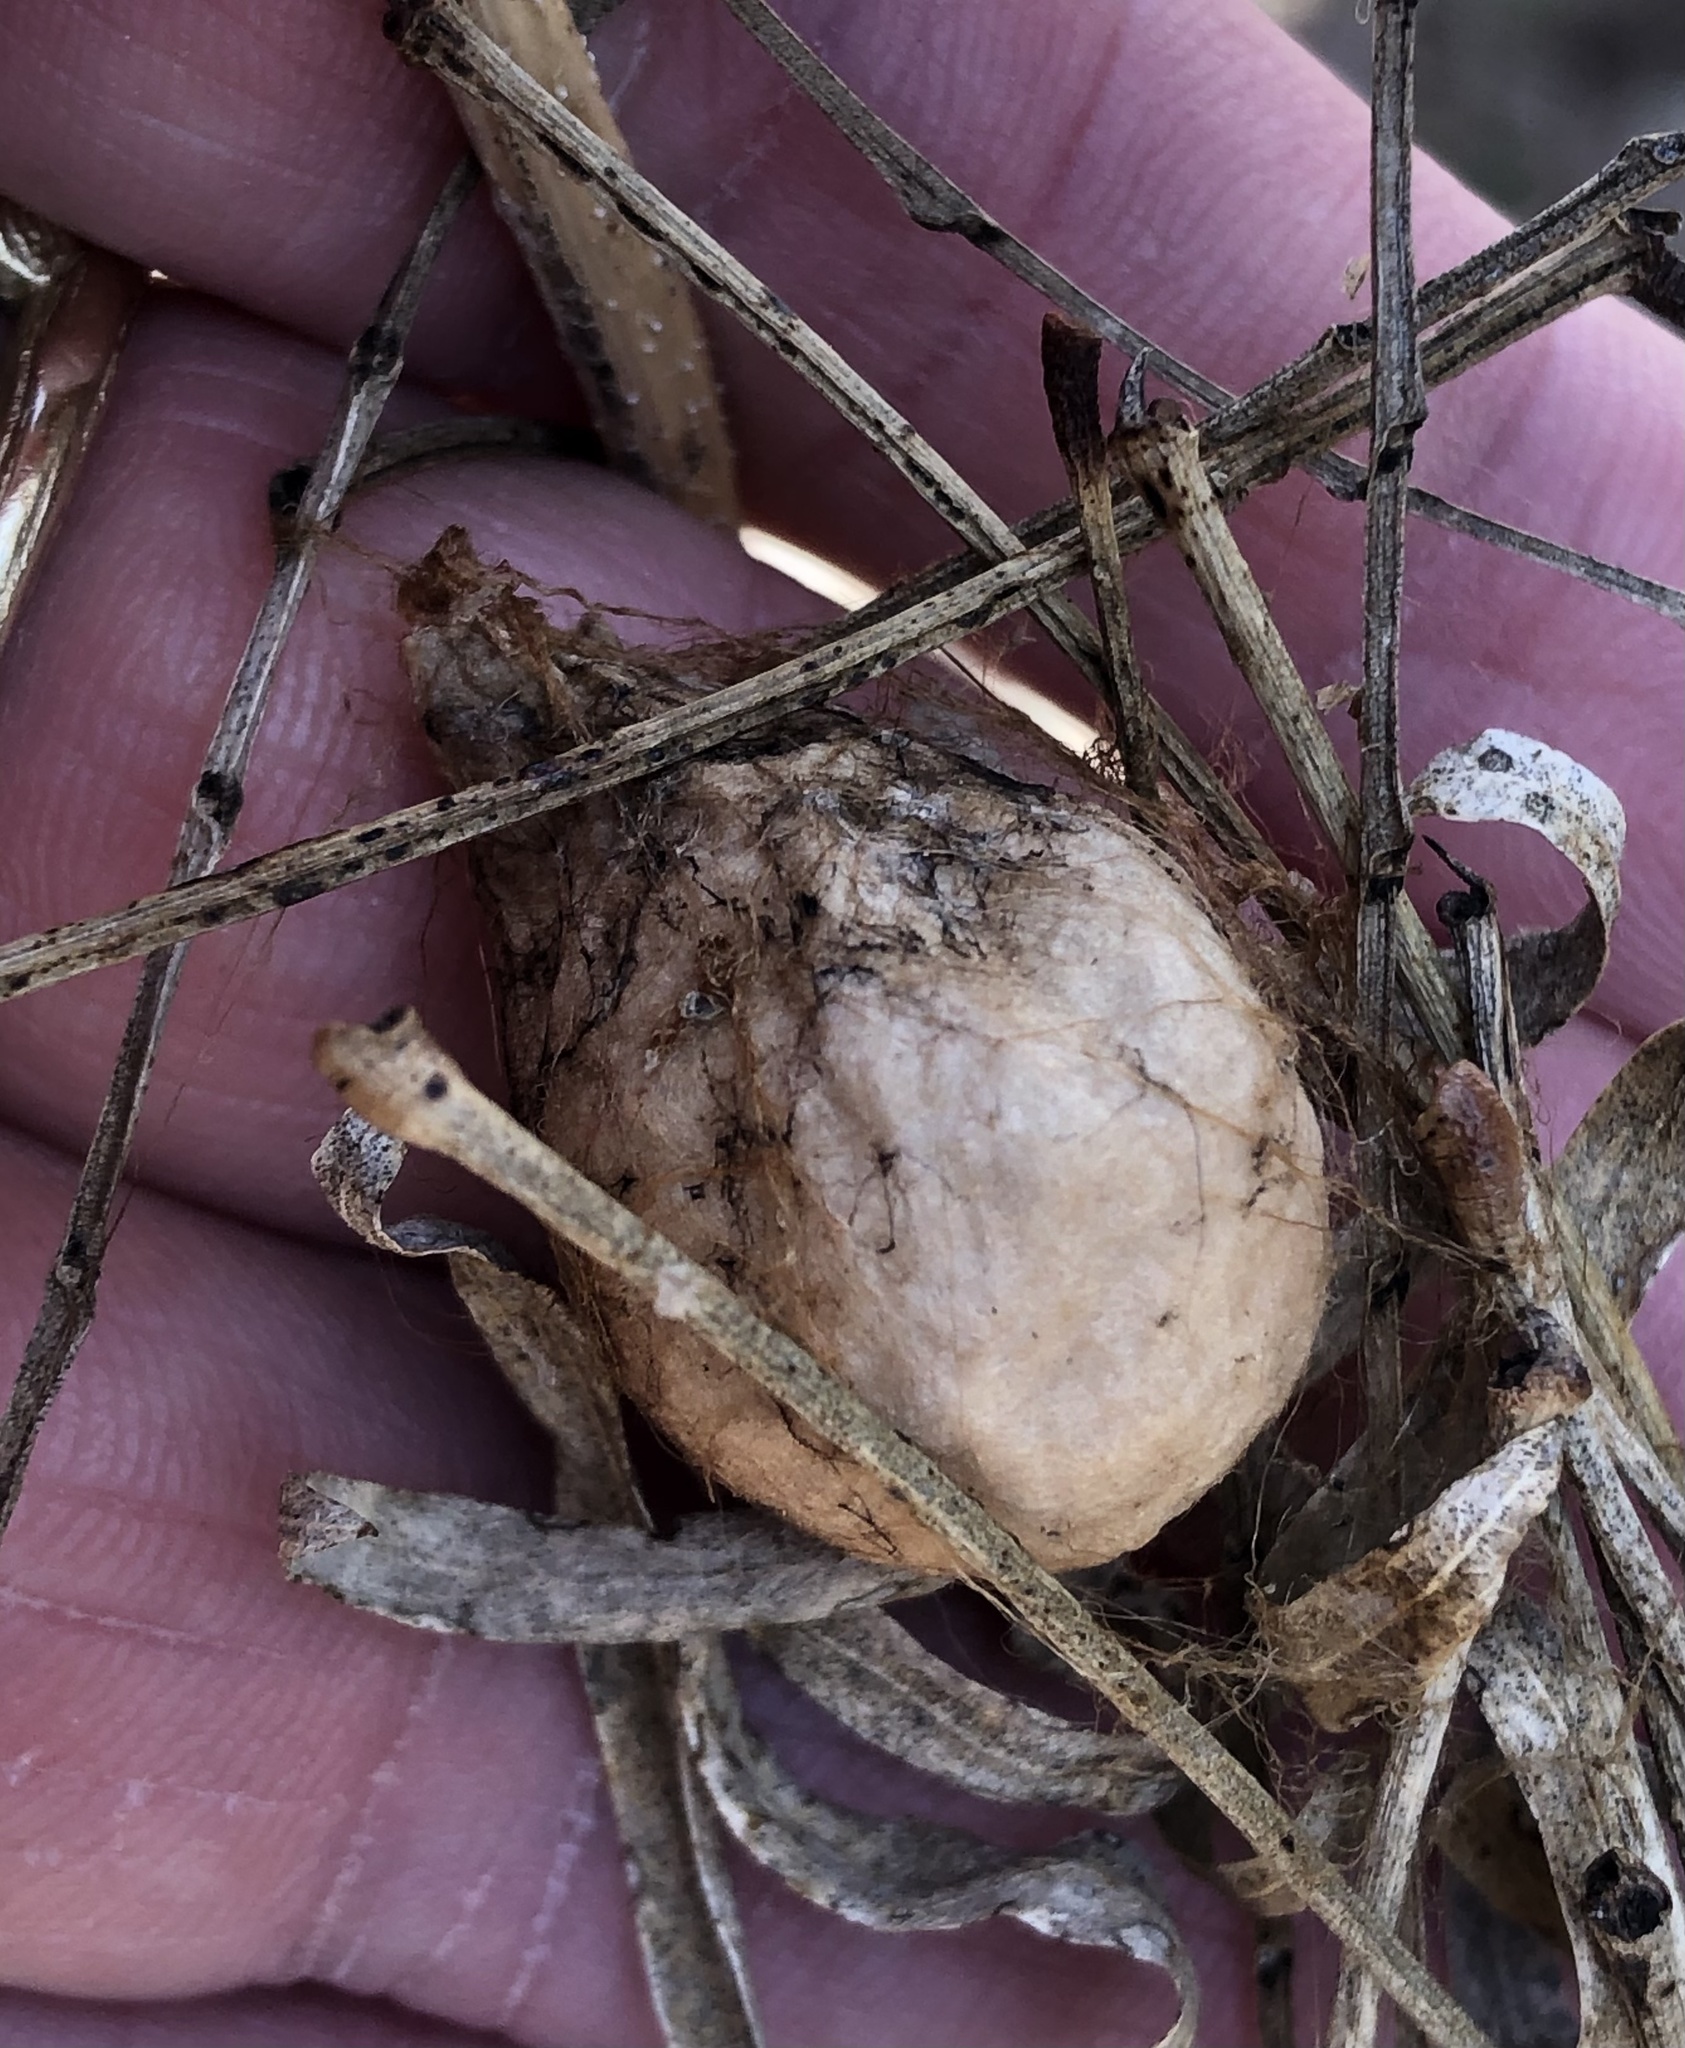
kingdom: Animalia
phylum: Arthropoda
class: Arachnida
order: Araneae
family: Araneidae
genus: Argiope
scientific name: Argiope aurantia
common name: Orb weavers
